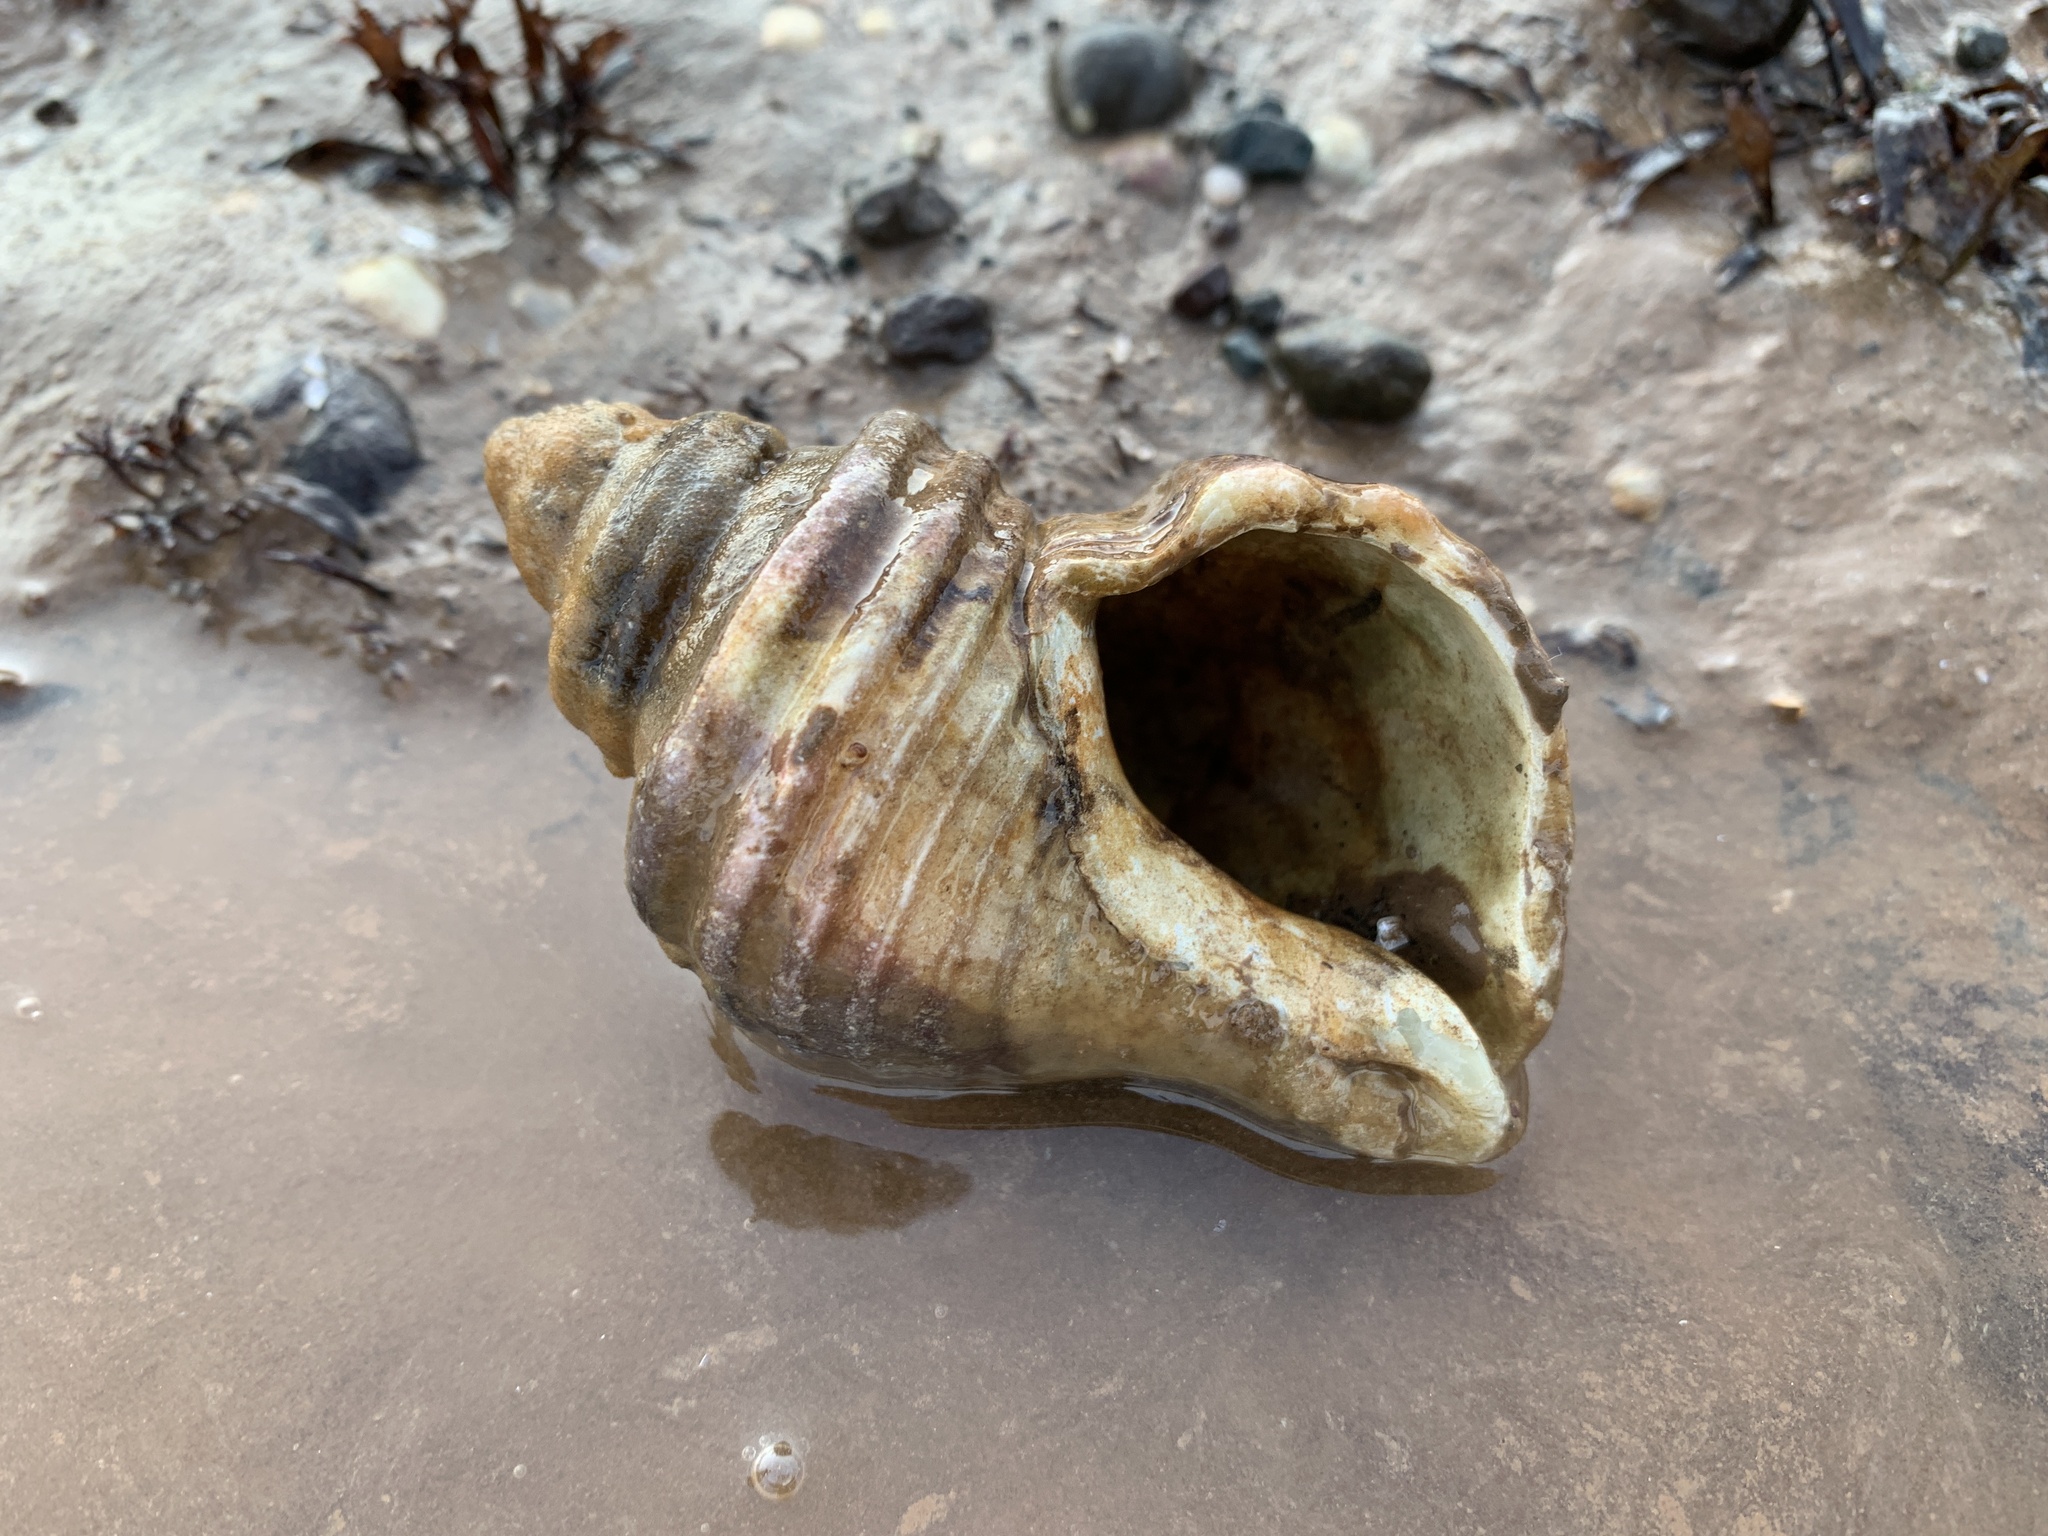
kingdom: Animalia
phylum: Mollusca
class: Gastropoda
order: Neogastropoda
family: Buccinidae
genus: Neptunea
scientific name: Neptunea decemcostata
